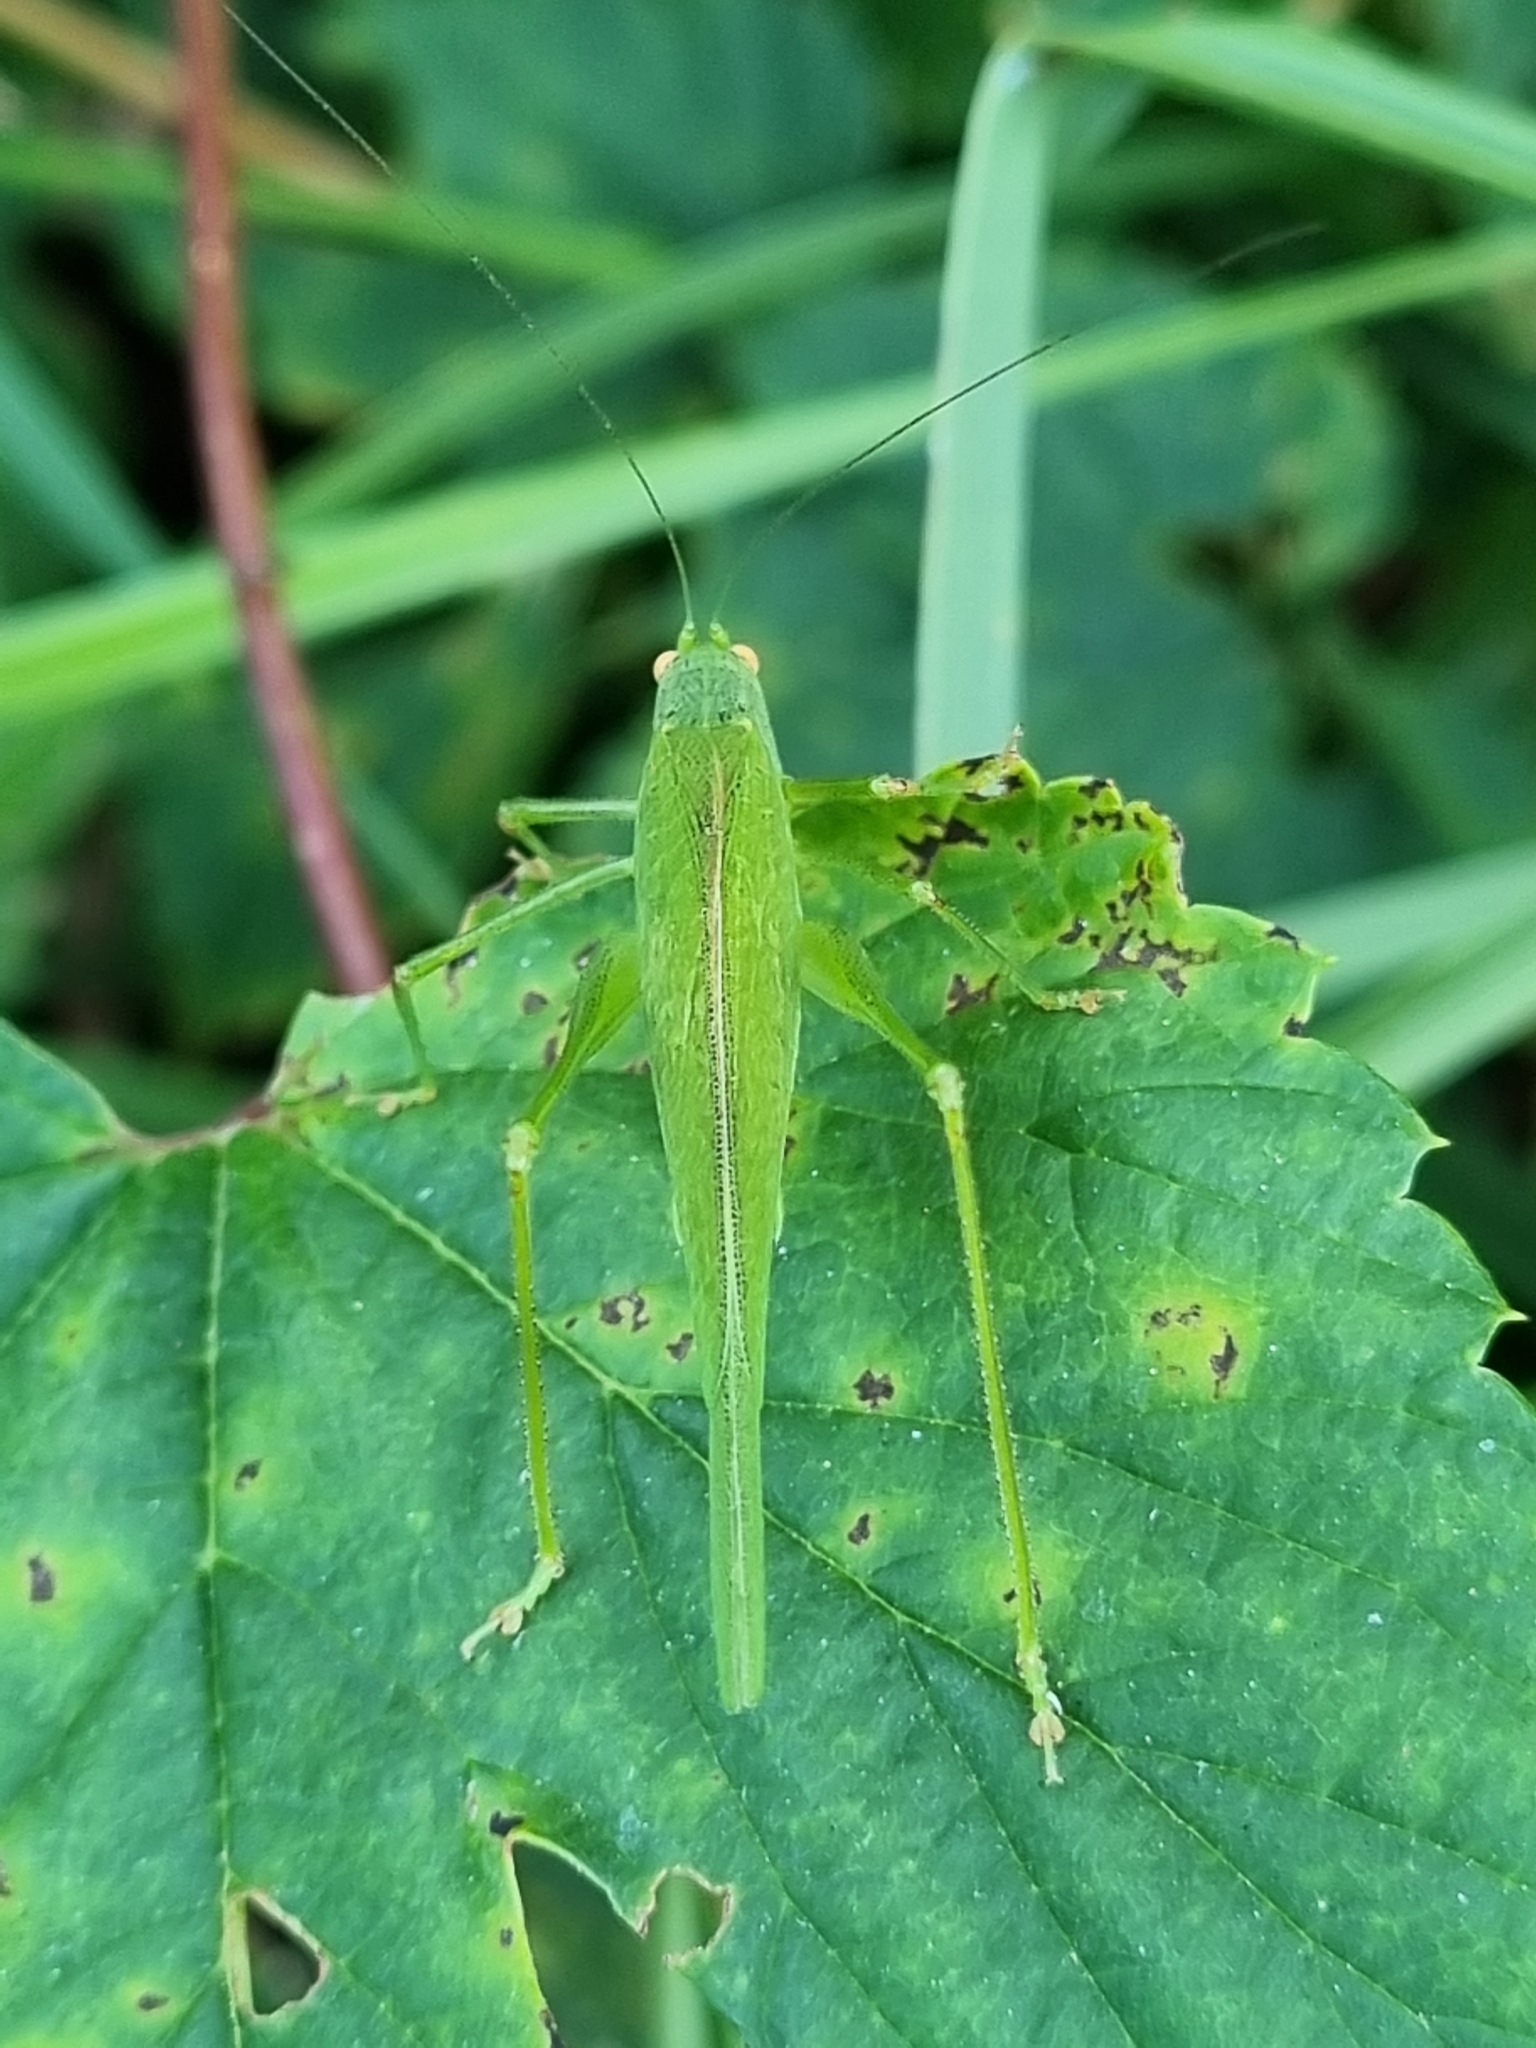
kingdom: Animalia
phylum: Arthropoda
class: Insecta
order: Orthoptera
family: Tettigoniidae
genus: Phaneroptera
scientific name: Phaneroptera nana
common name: Southern sickle bush-cricket
